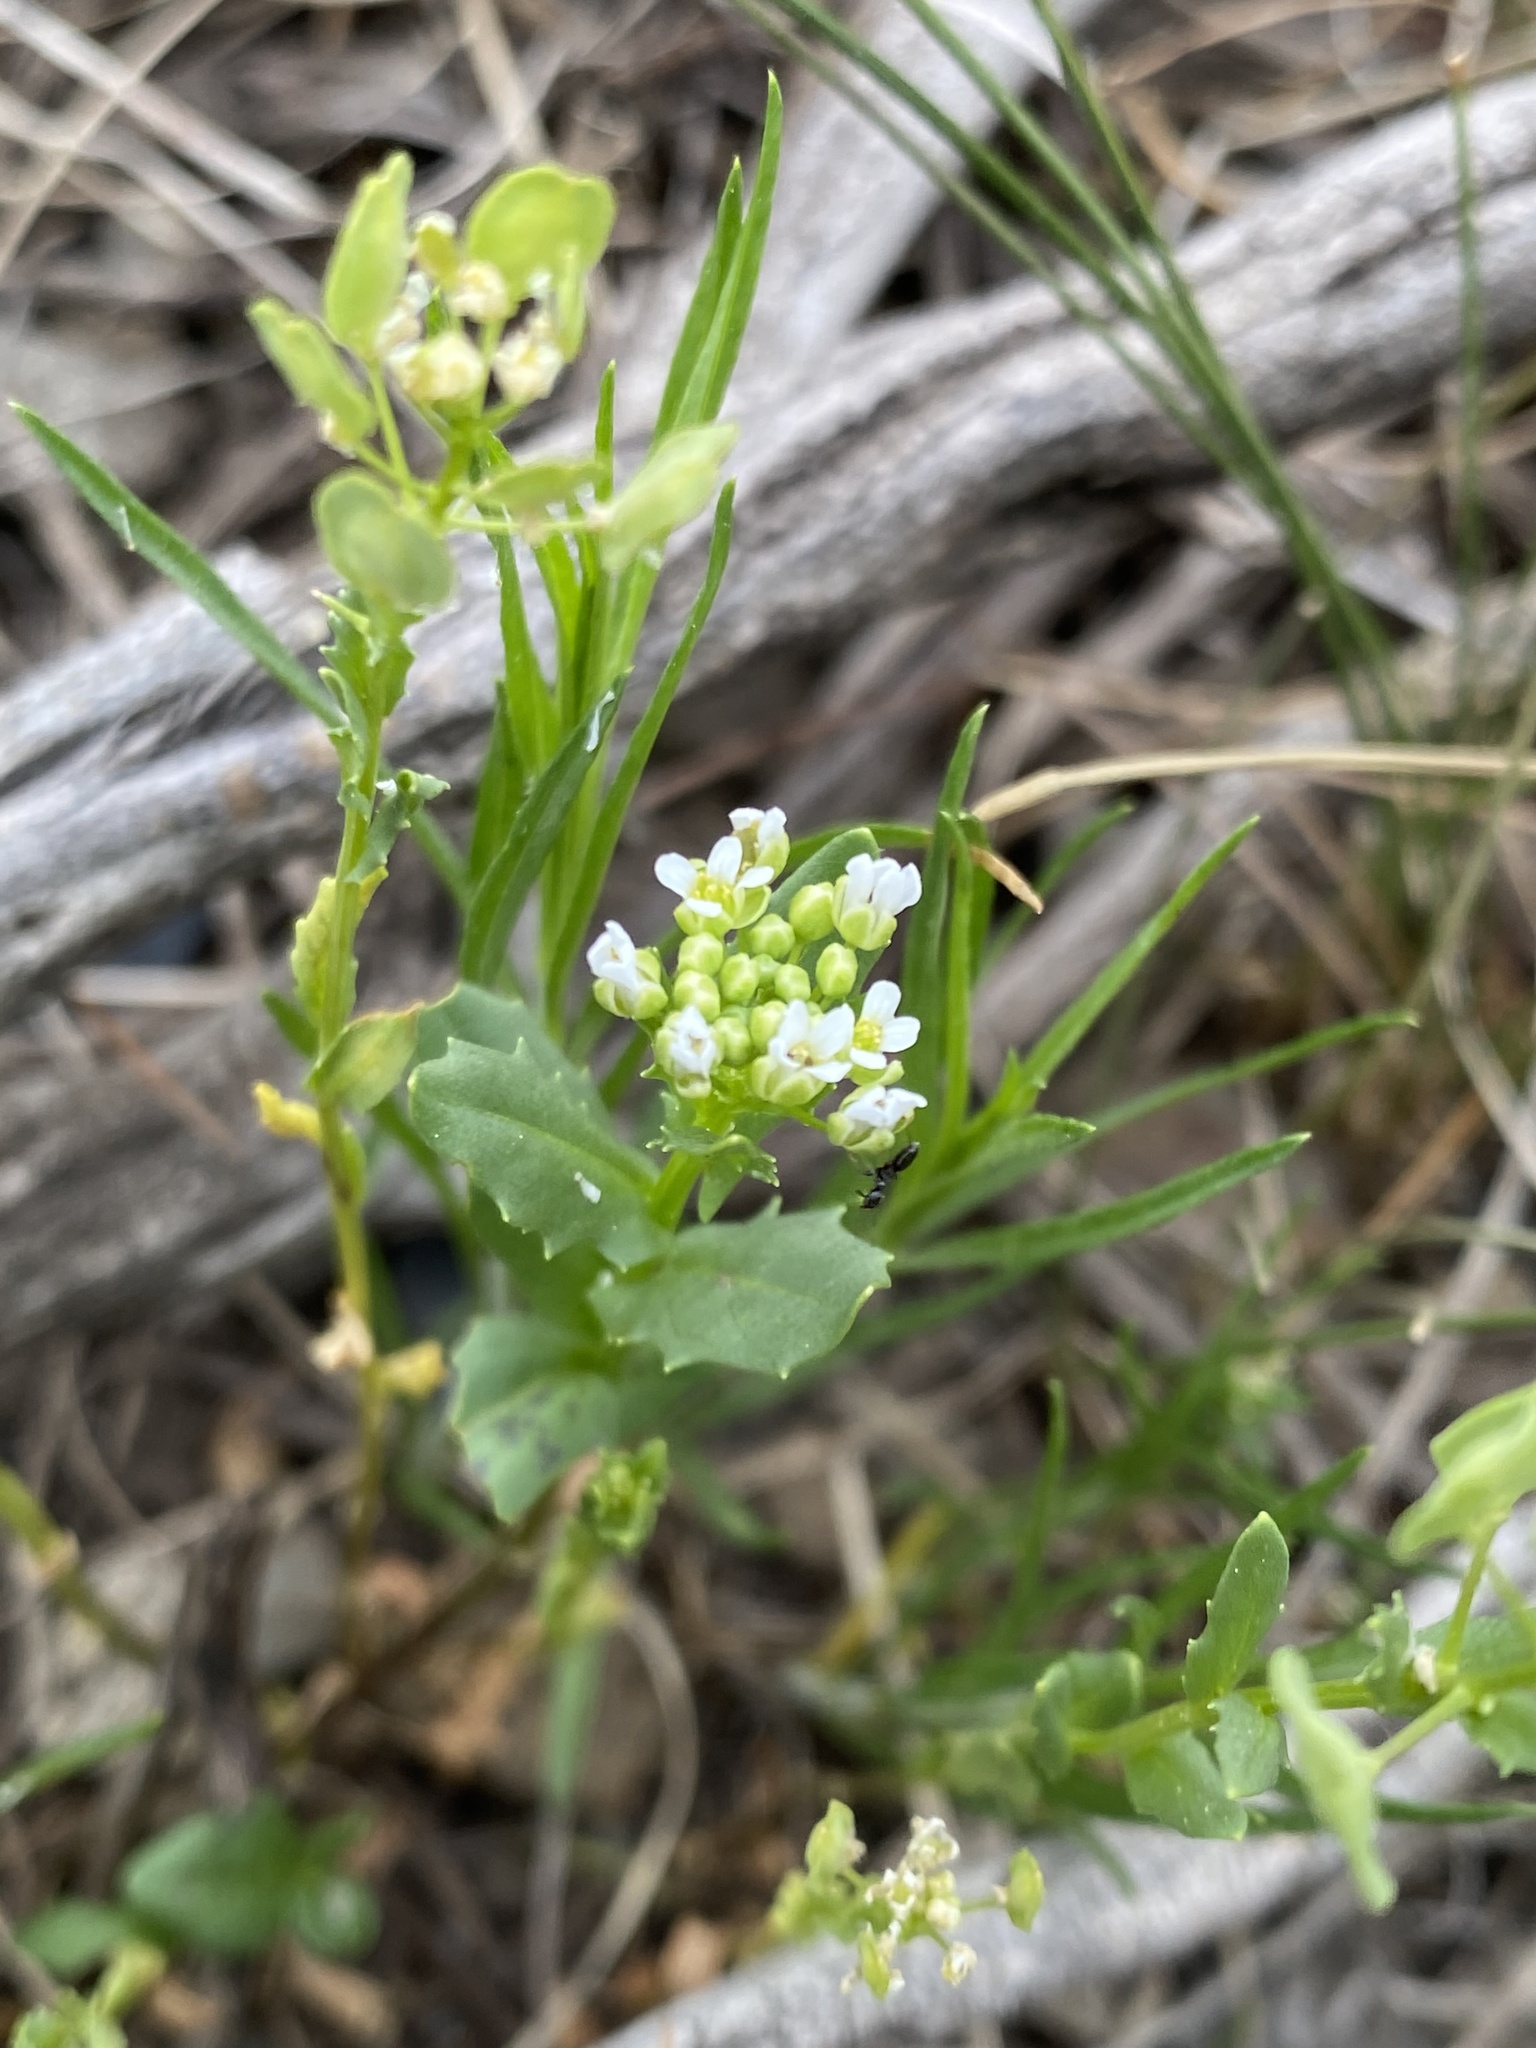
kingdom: Plantae
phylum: Tracheophyta
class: Magnoliopsida
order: Brassicales
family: Brassicaceae
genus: Thlaspi
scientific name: Thlaspi arvense
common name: Field pennycress
